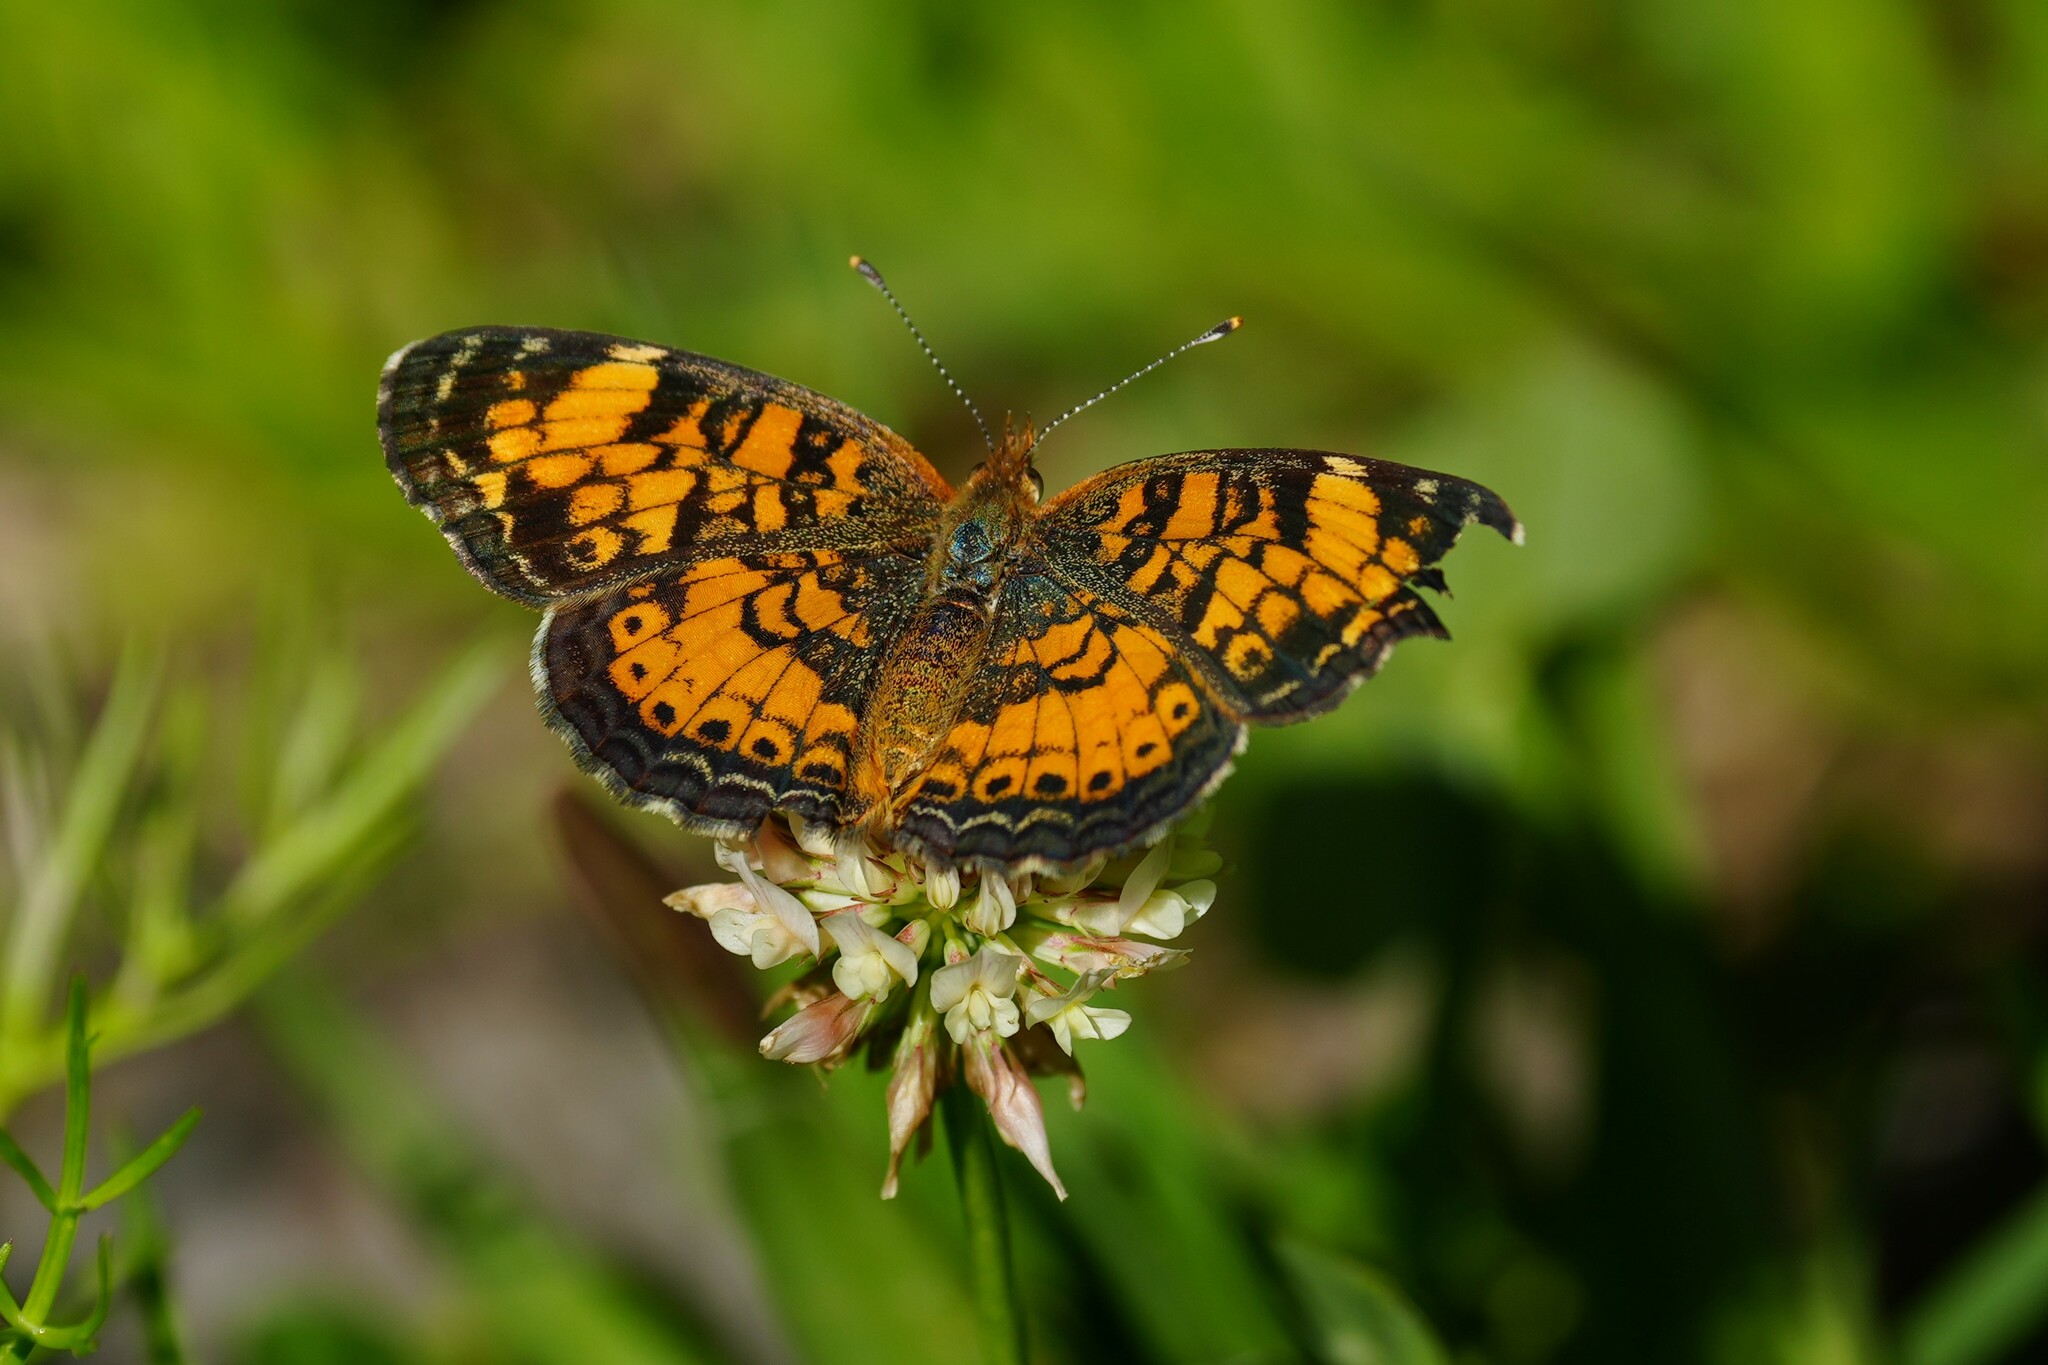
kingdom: Animalia
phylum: Arthropoda
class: Insecta
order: Lepidoptera
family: Nymphalidae
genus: Phyciodes
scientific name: Phyciodes tharos
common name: Pearl crescent
